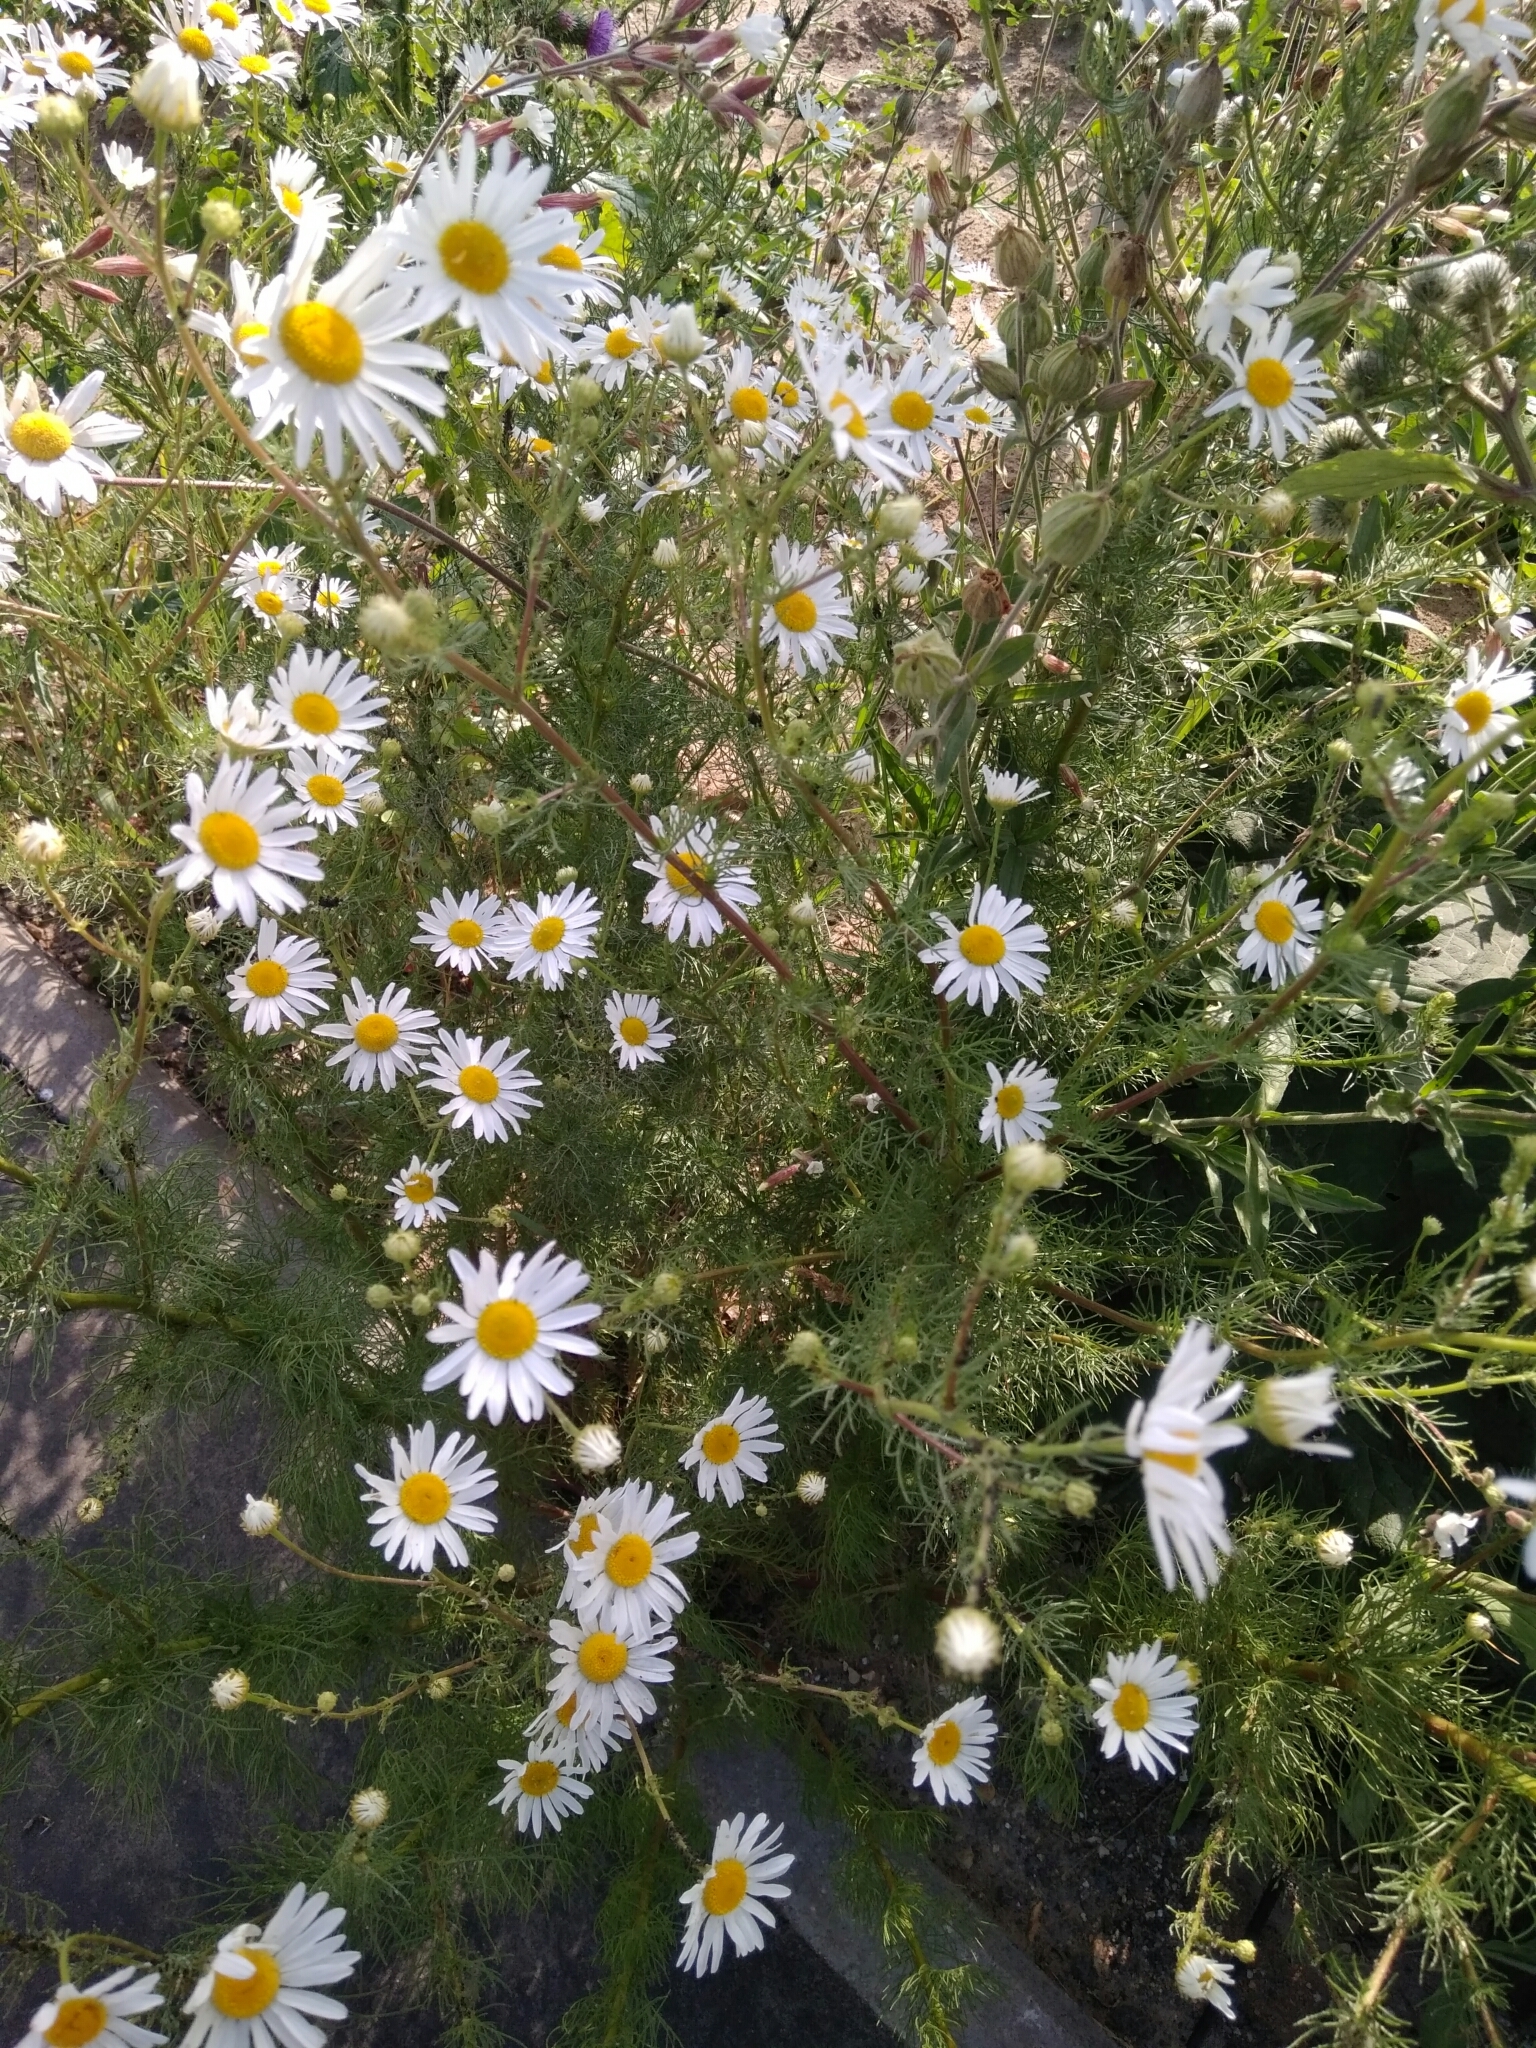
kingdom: Plantae
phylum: Tracheophyta
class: Magnoliopsida
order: Asterales
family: Asteraceae
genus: Tripleurospermum
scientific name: Tripleurospermum inodorum
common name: Scentless mayweed
